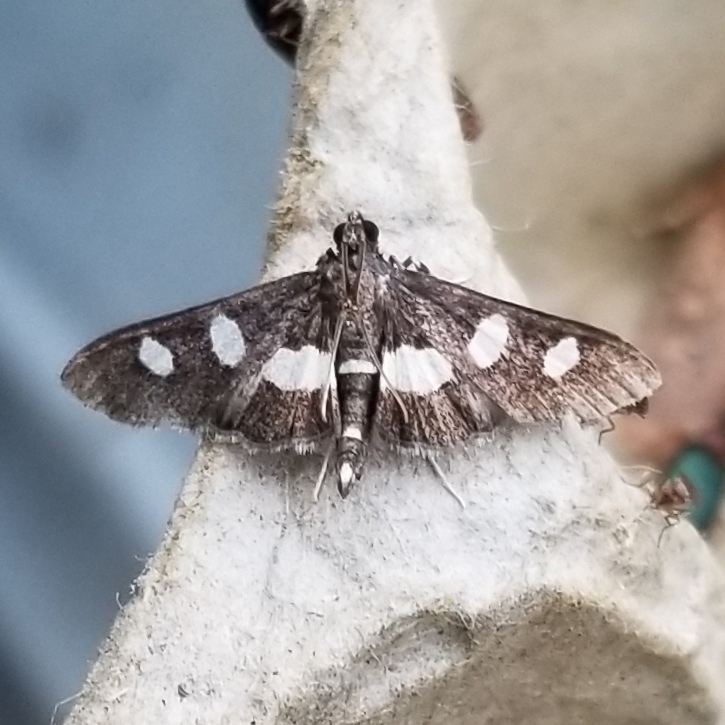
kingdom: Animalia
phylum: Arthropoda
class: Insecta
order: Lepidoptera
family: Crambidae
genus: Desmia
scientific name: Desmia
